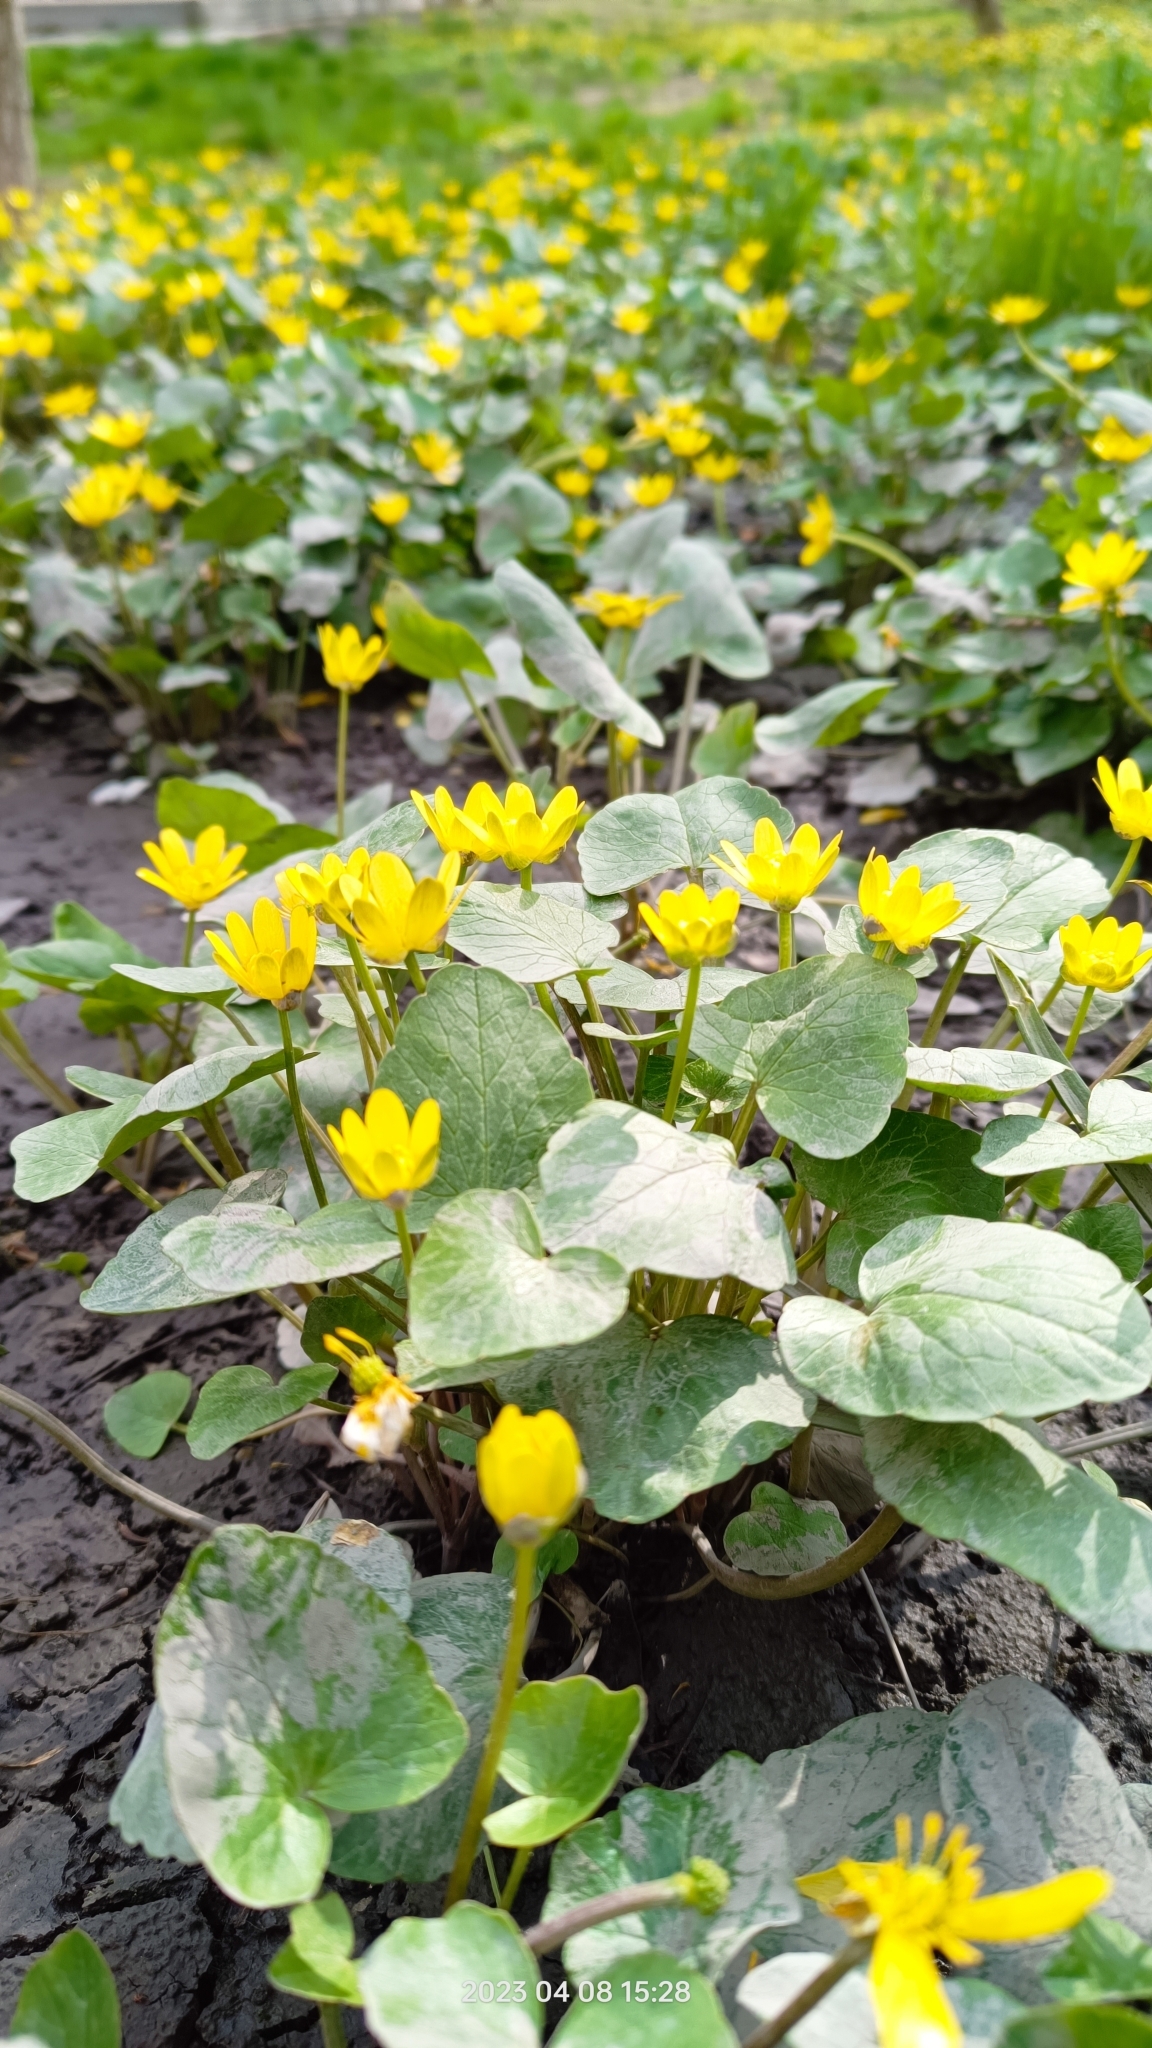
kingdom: Plantae
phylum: Tracheophyta
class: Magnoliopsida
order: Ranunculales
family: Ranunculaceae
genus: Ficaria
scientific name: Ficaria verna
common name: Lesser celandine
